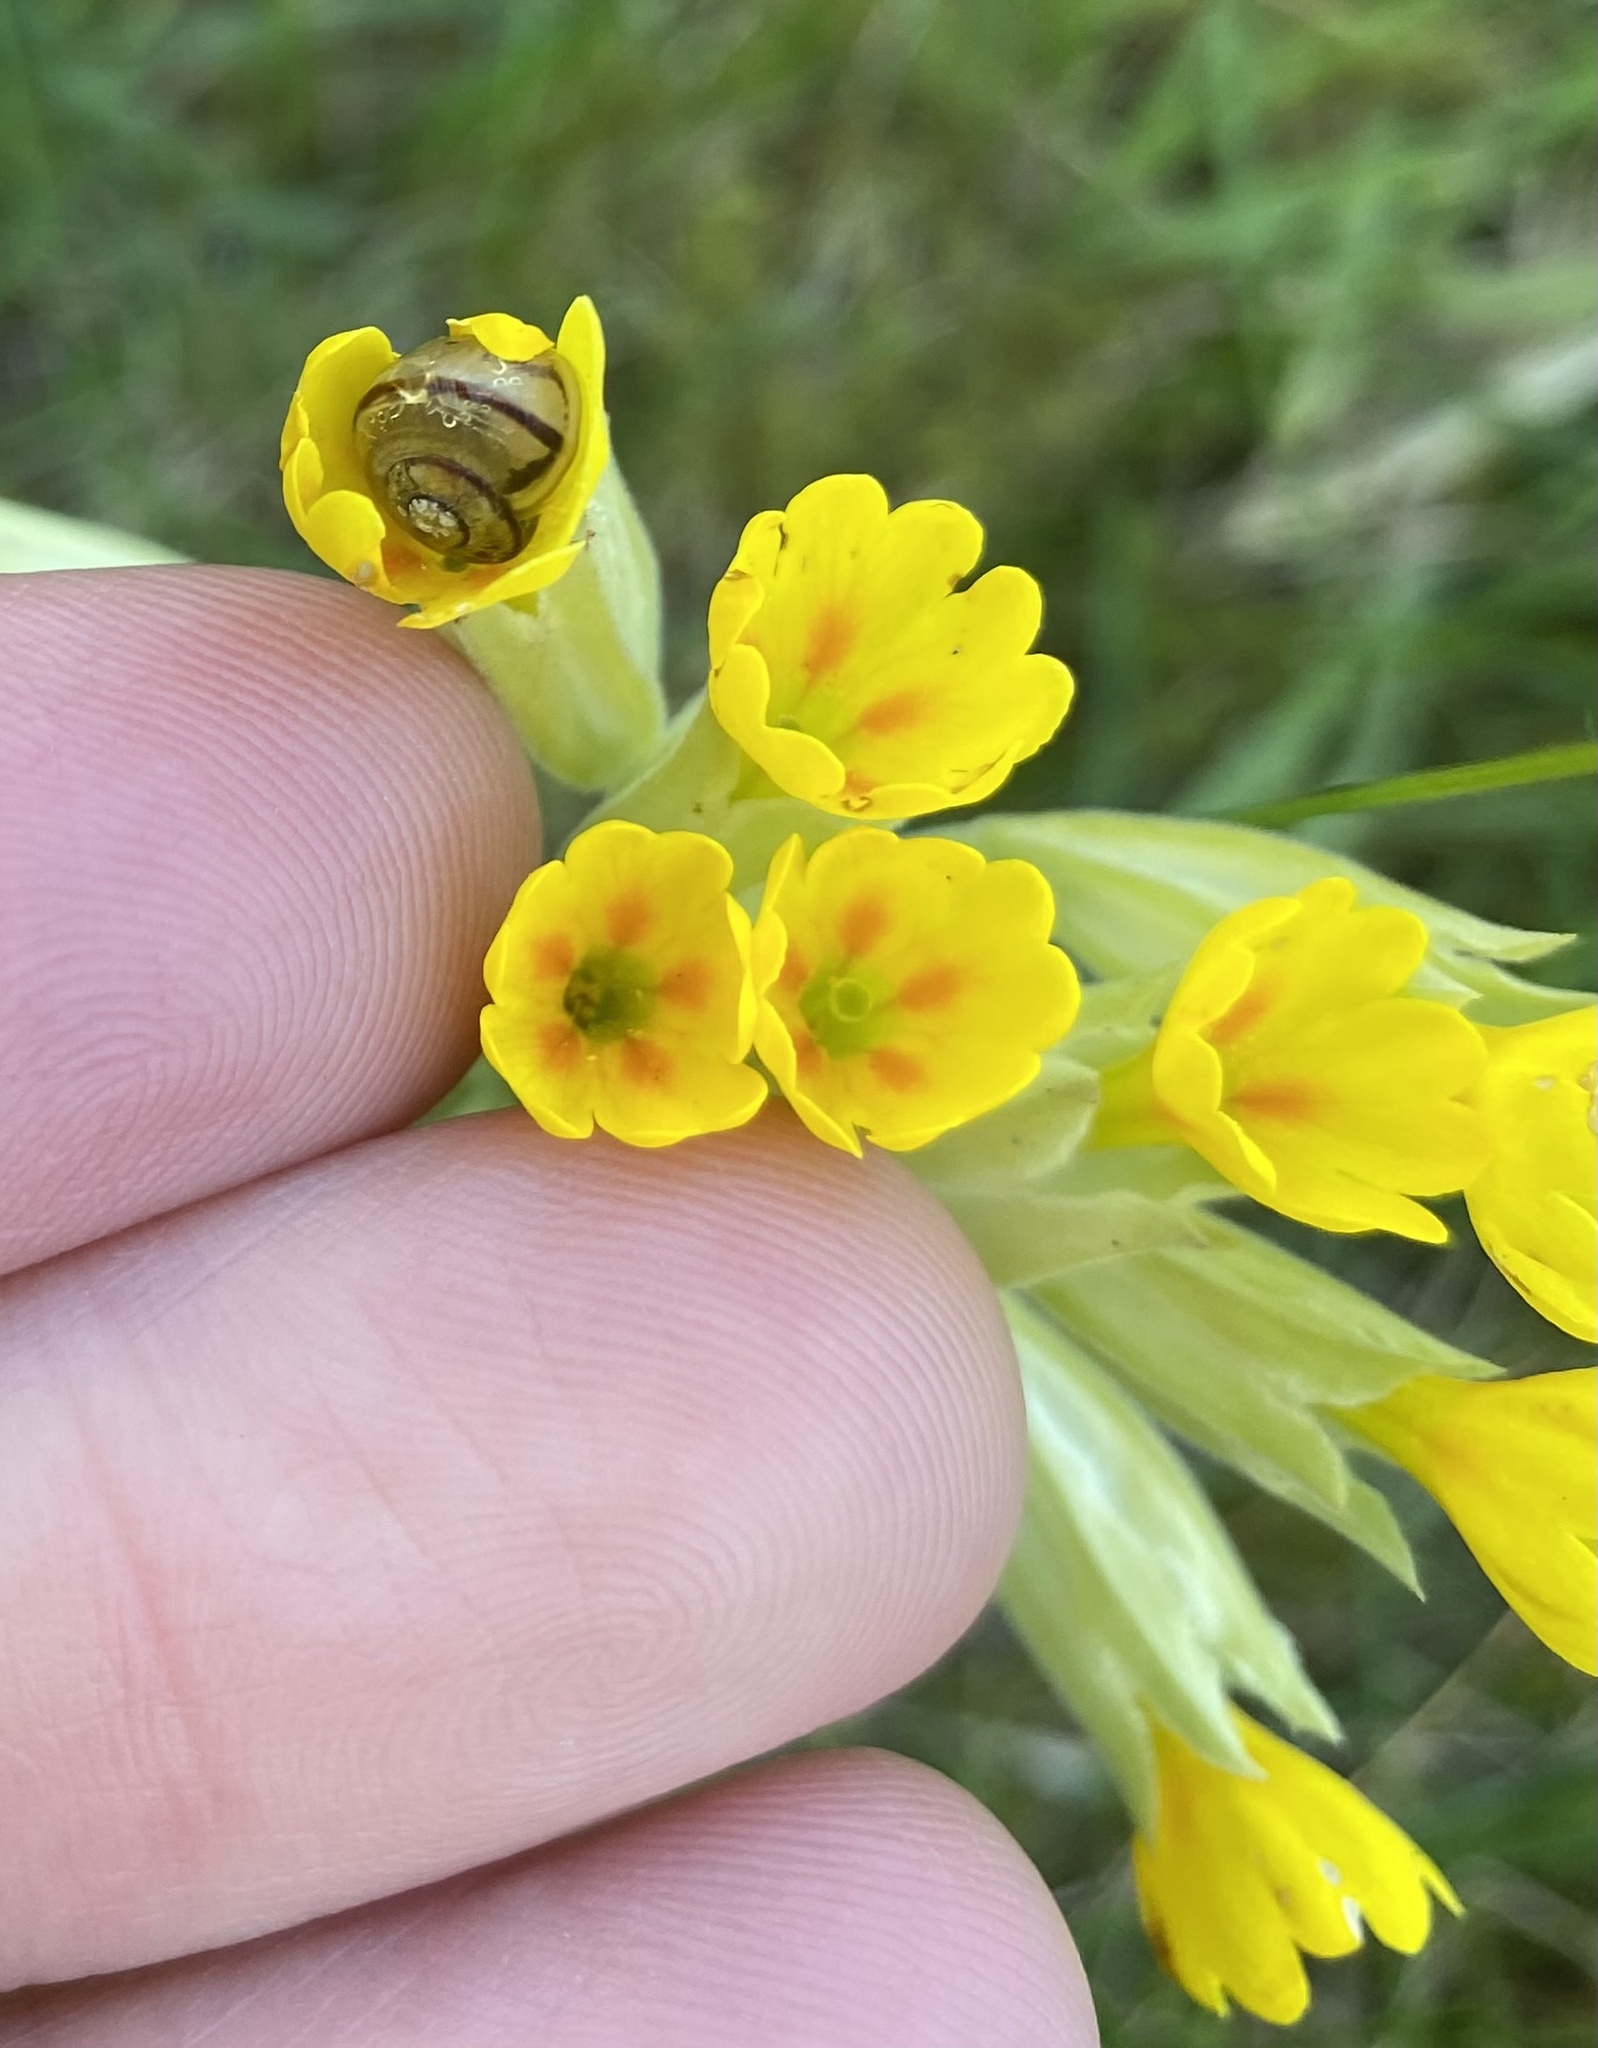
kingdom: Plantae
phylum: Tracheophyta
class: Magnoliopsida
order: Ericales
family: Primulaceae
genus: Primula
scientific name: Primula veris
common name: Cowslip
